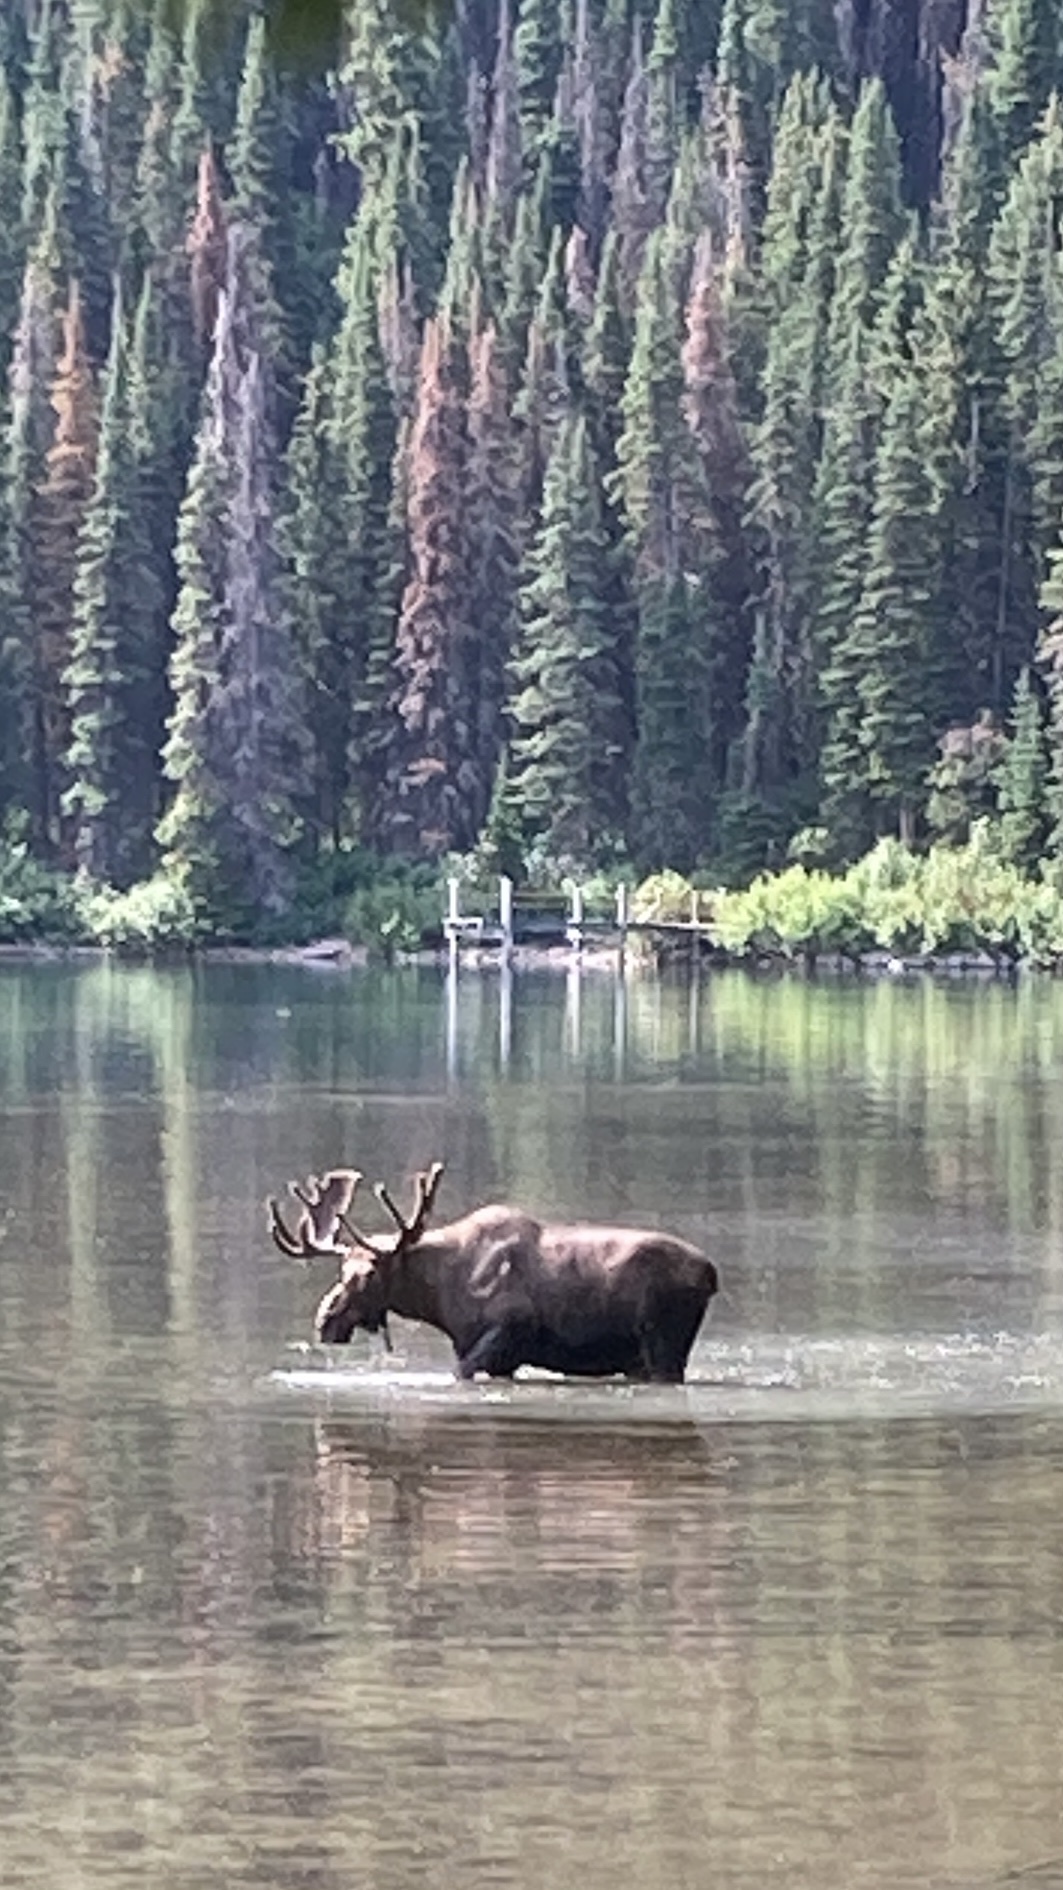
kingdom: Animalia
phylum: Chordata
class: Mammalia
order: Artiodactyla
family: Cervidae
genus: Alces
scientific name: Alces alces
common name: Moose
